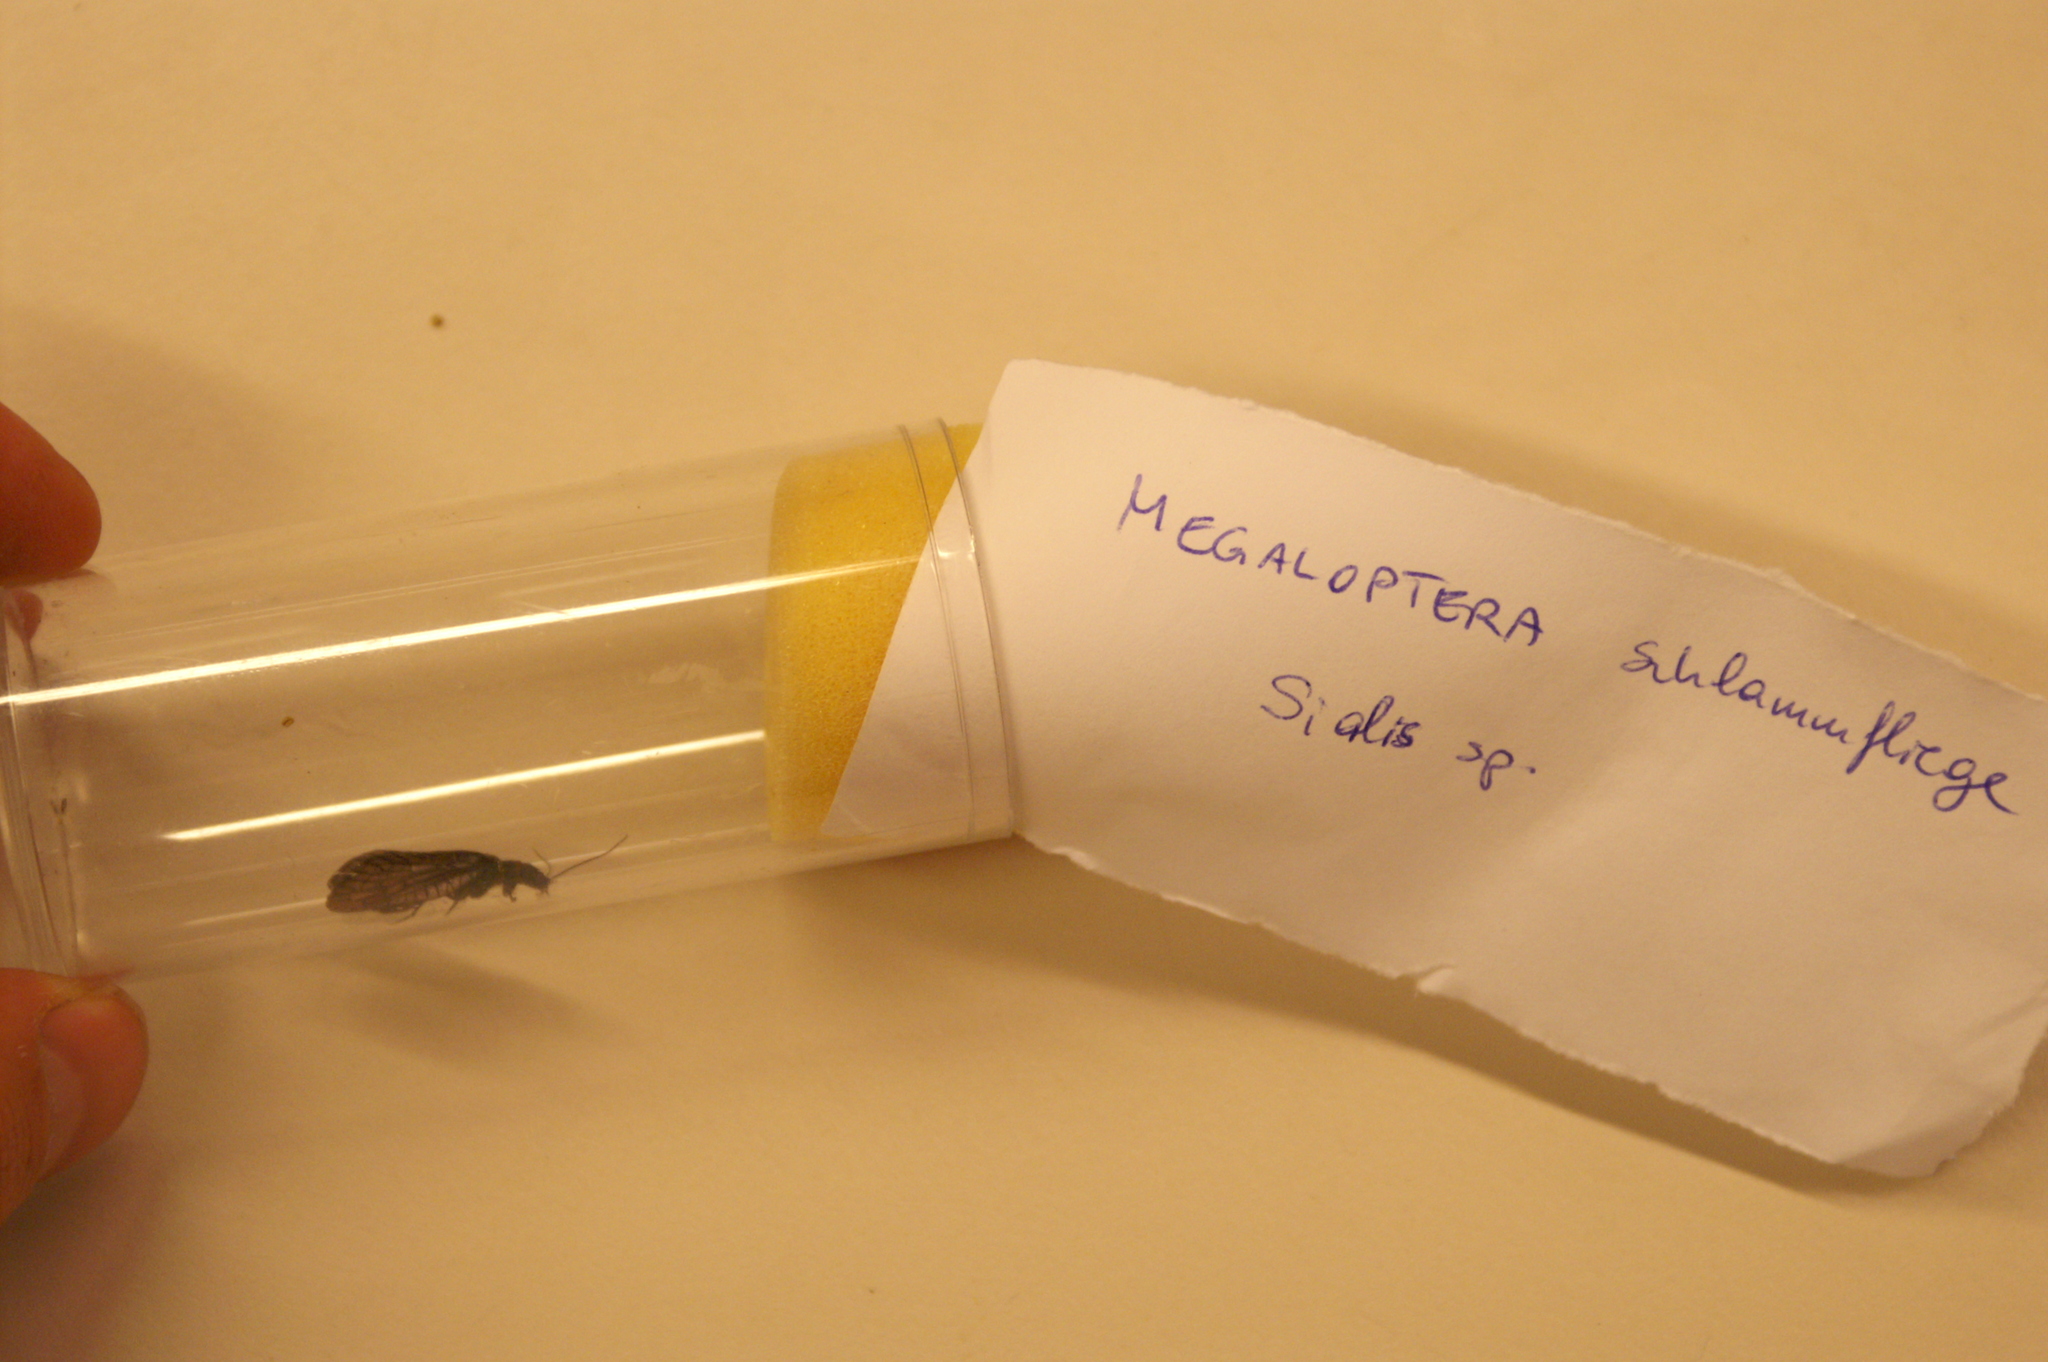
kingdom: Animalia
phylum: Arthropoda
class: Insecta
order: Megaloptera
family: Sialidae
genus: Sialis
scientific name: Sialis
